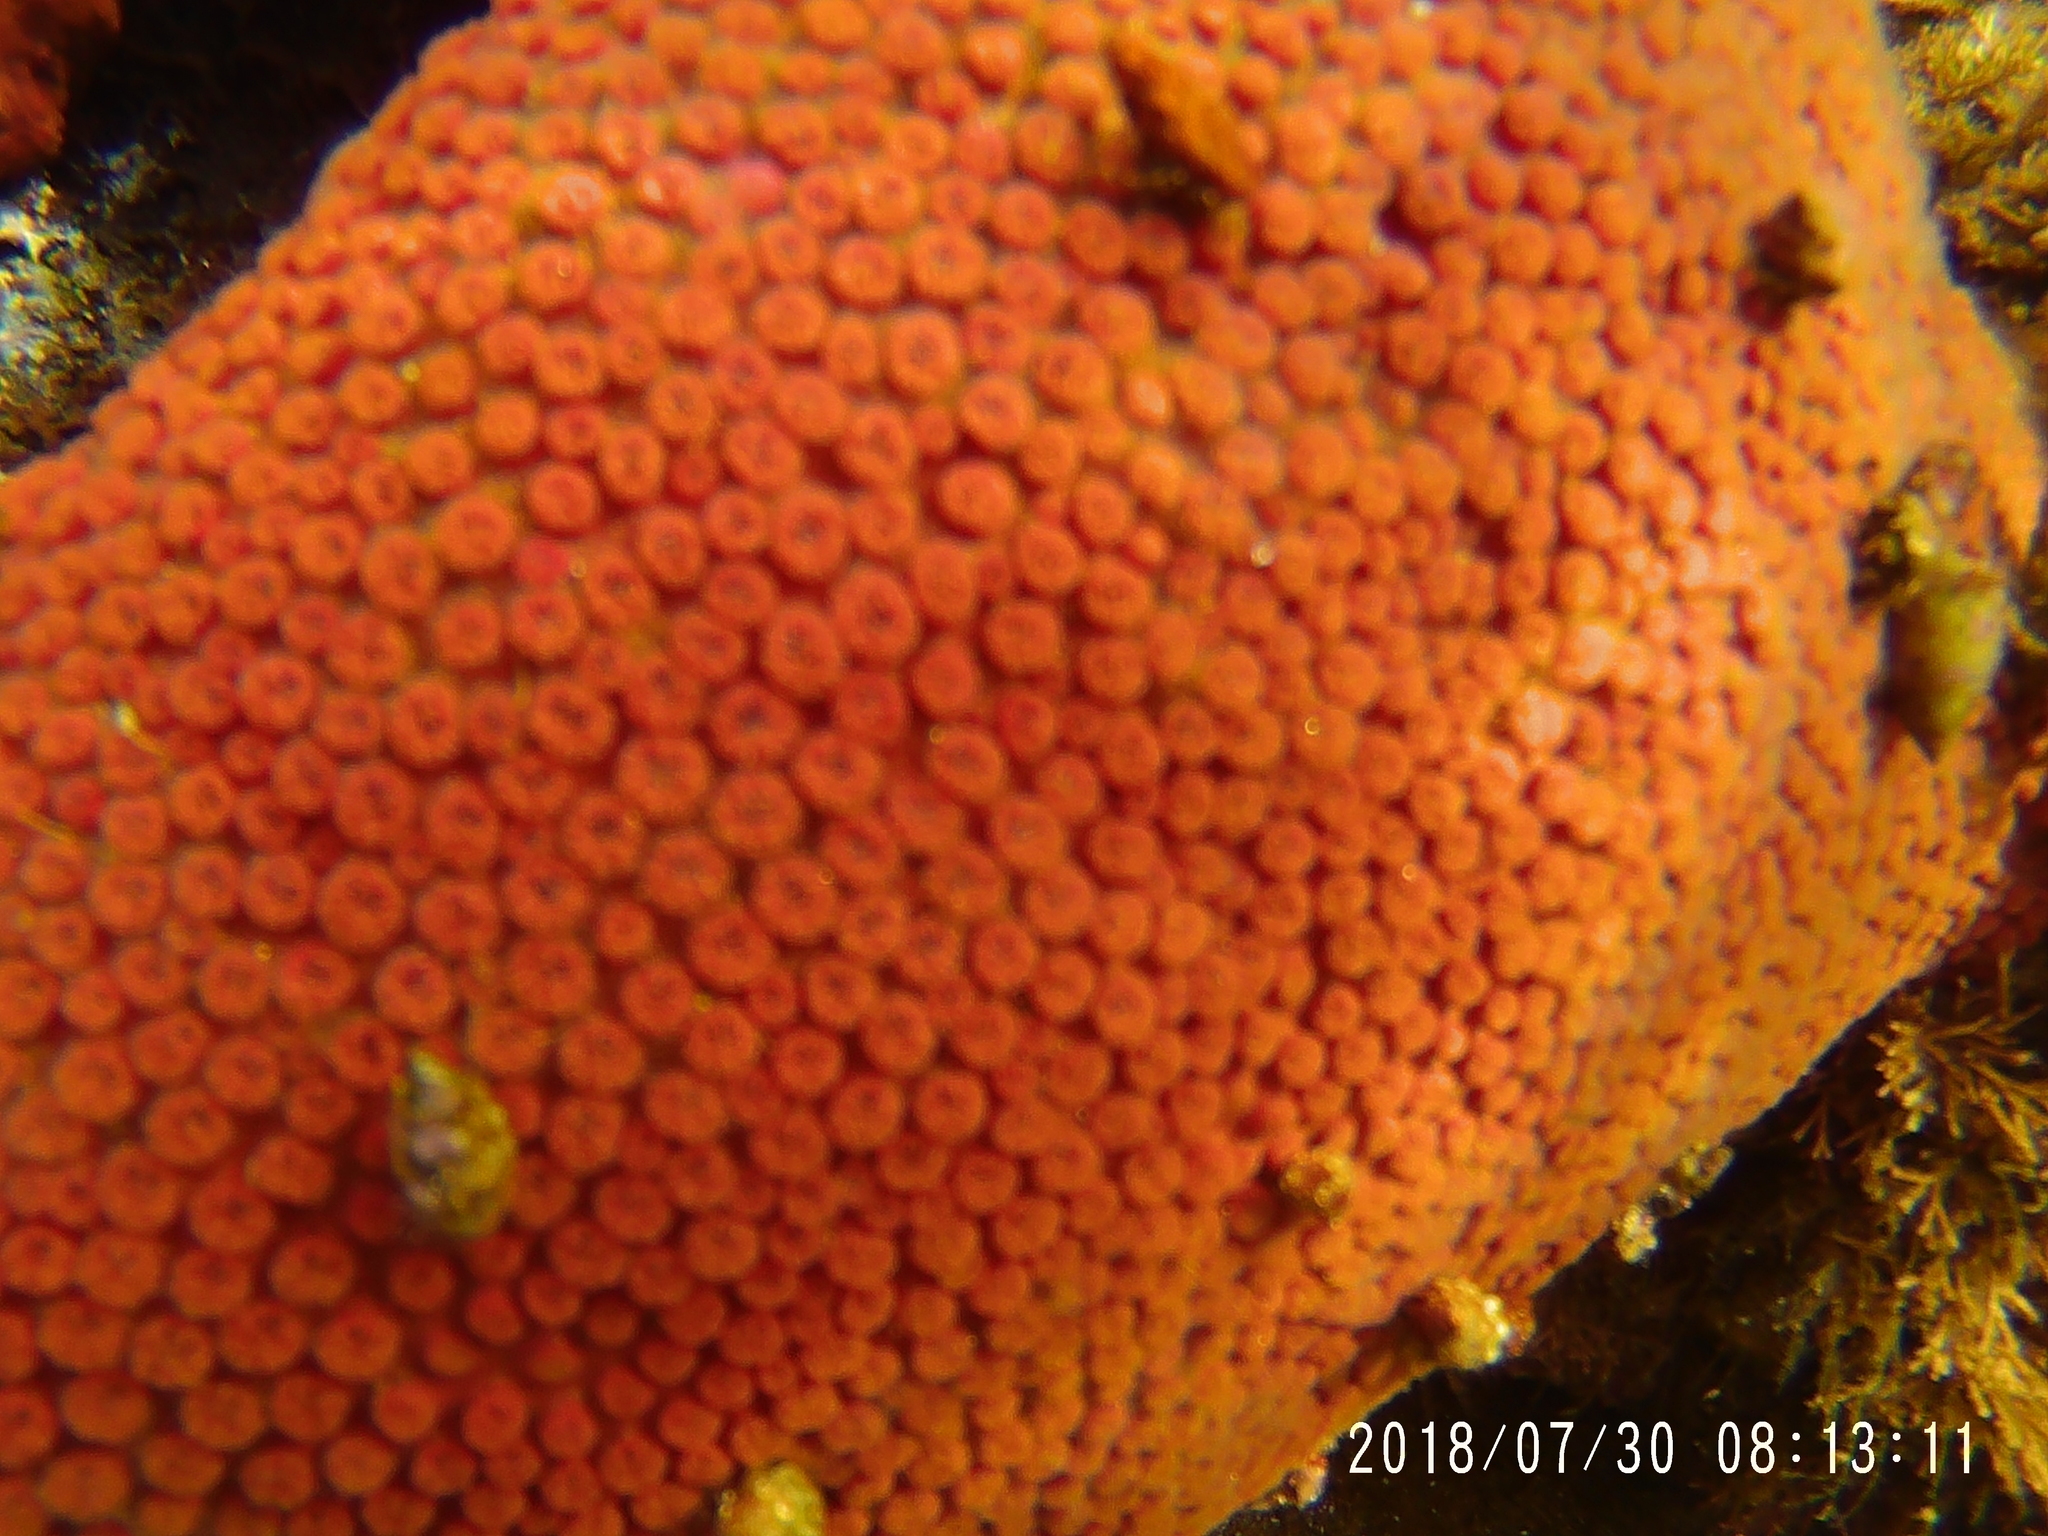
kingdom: Animalia
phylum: Porifera
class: Demospongiae
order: Clionaida
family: Clionaidae
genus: Cliona
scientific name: Cliona californiana
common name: California boring horny sponge
